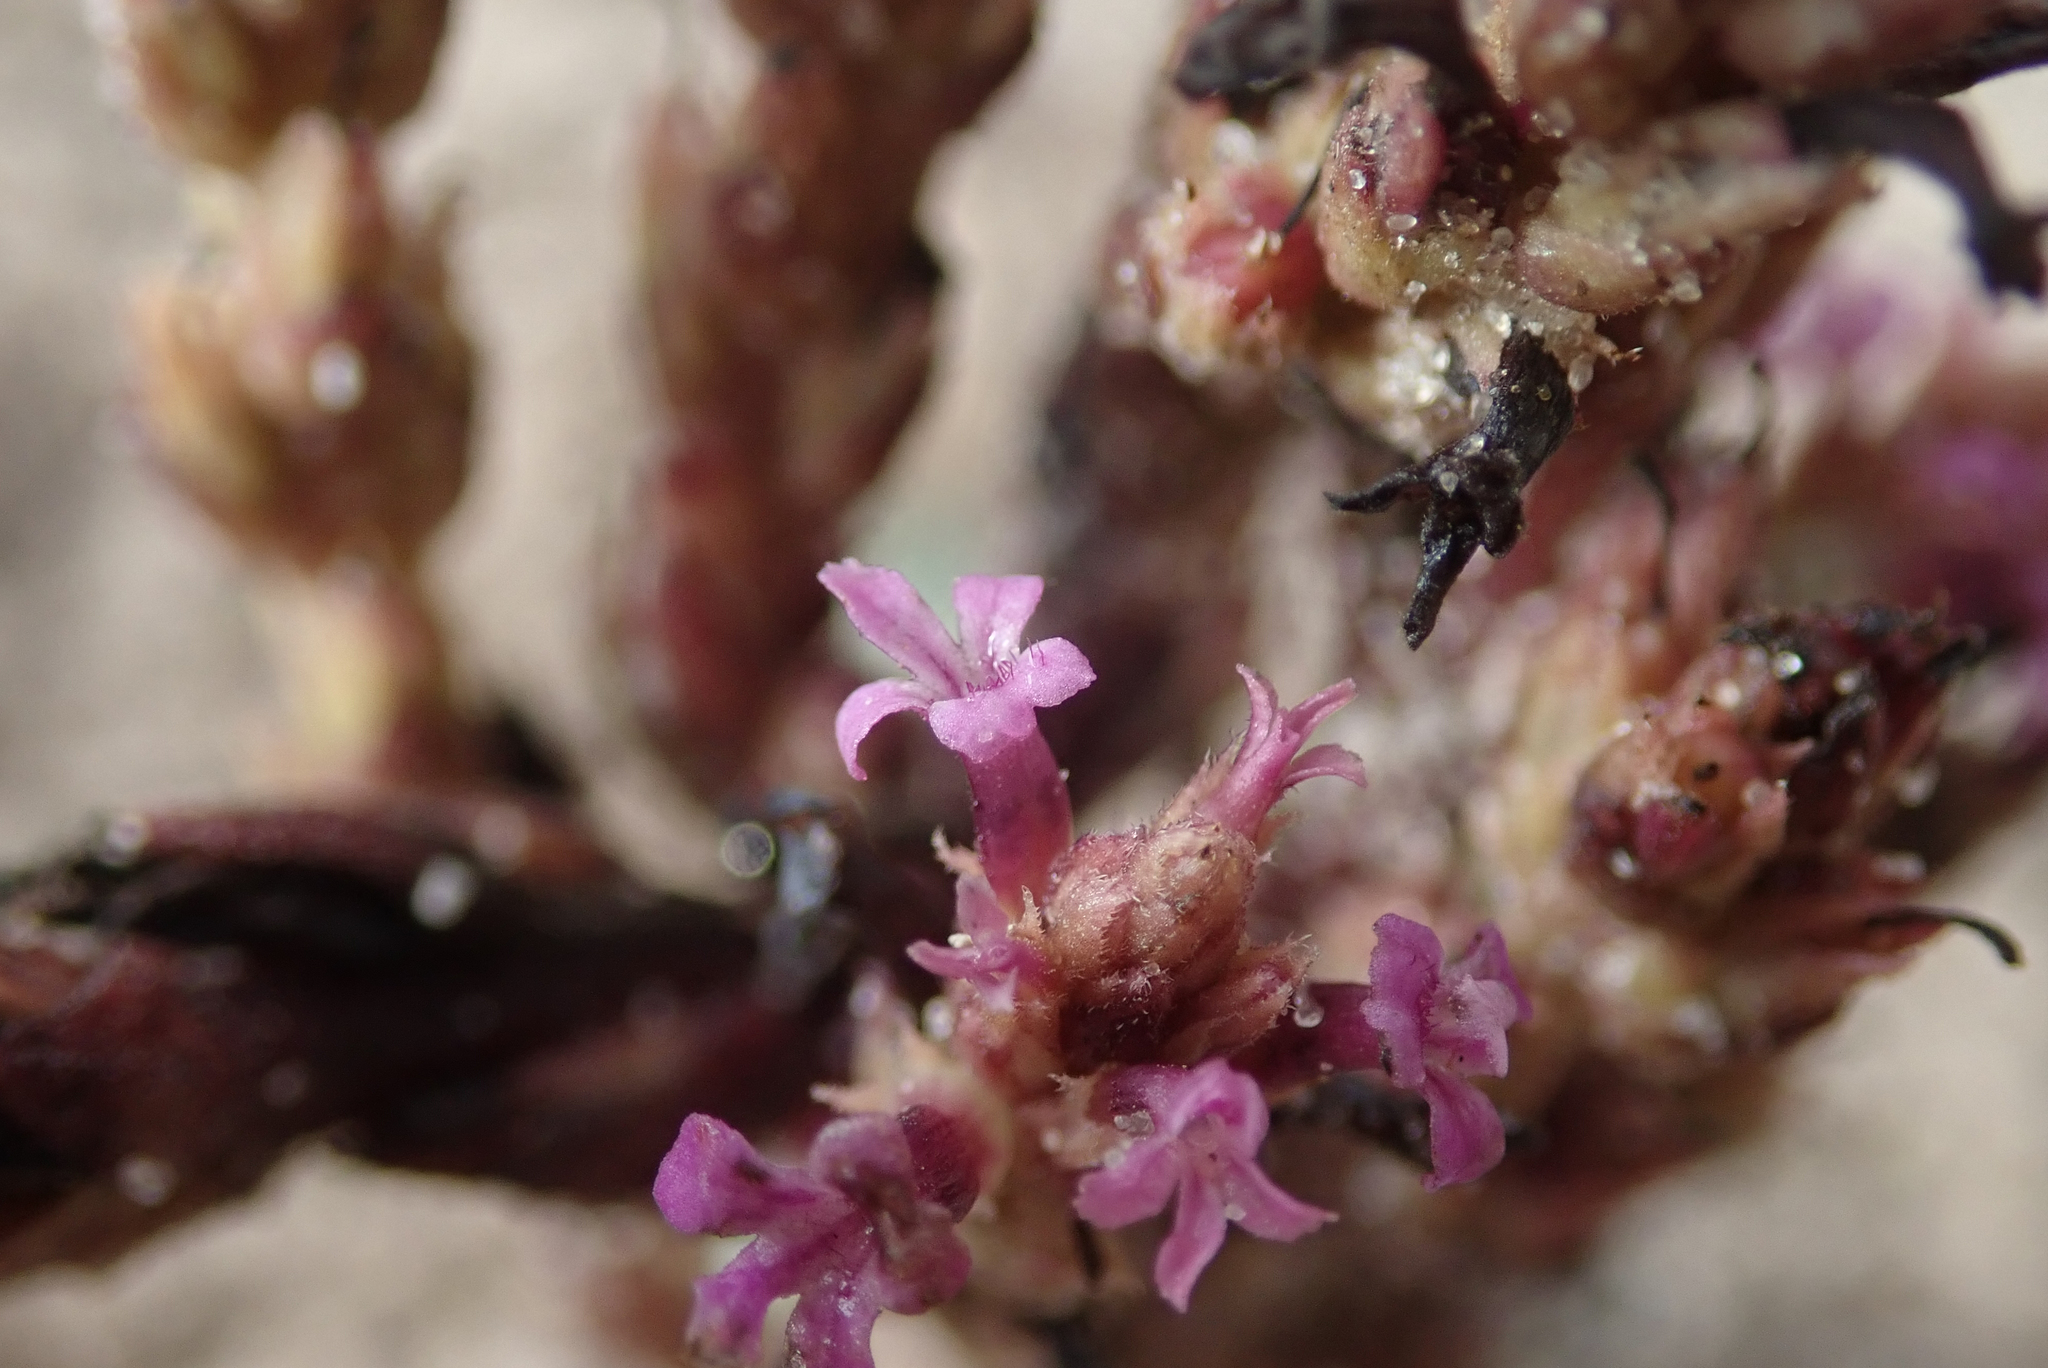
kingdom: Plantae
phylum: Tracheophyta
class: Magnoliopsida
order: Lamiales
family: Orobanchaceae
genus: Striga
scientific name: Striga bilabiata
